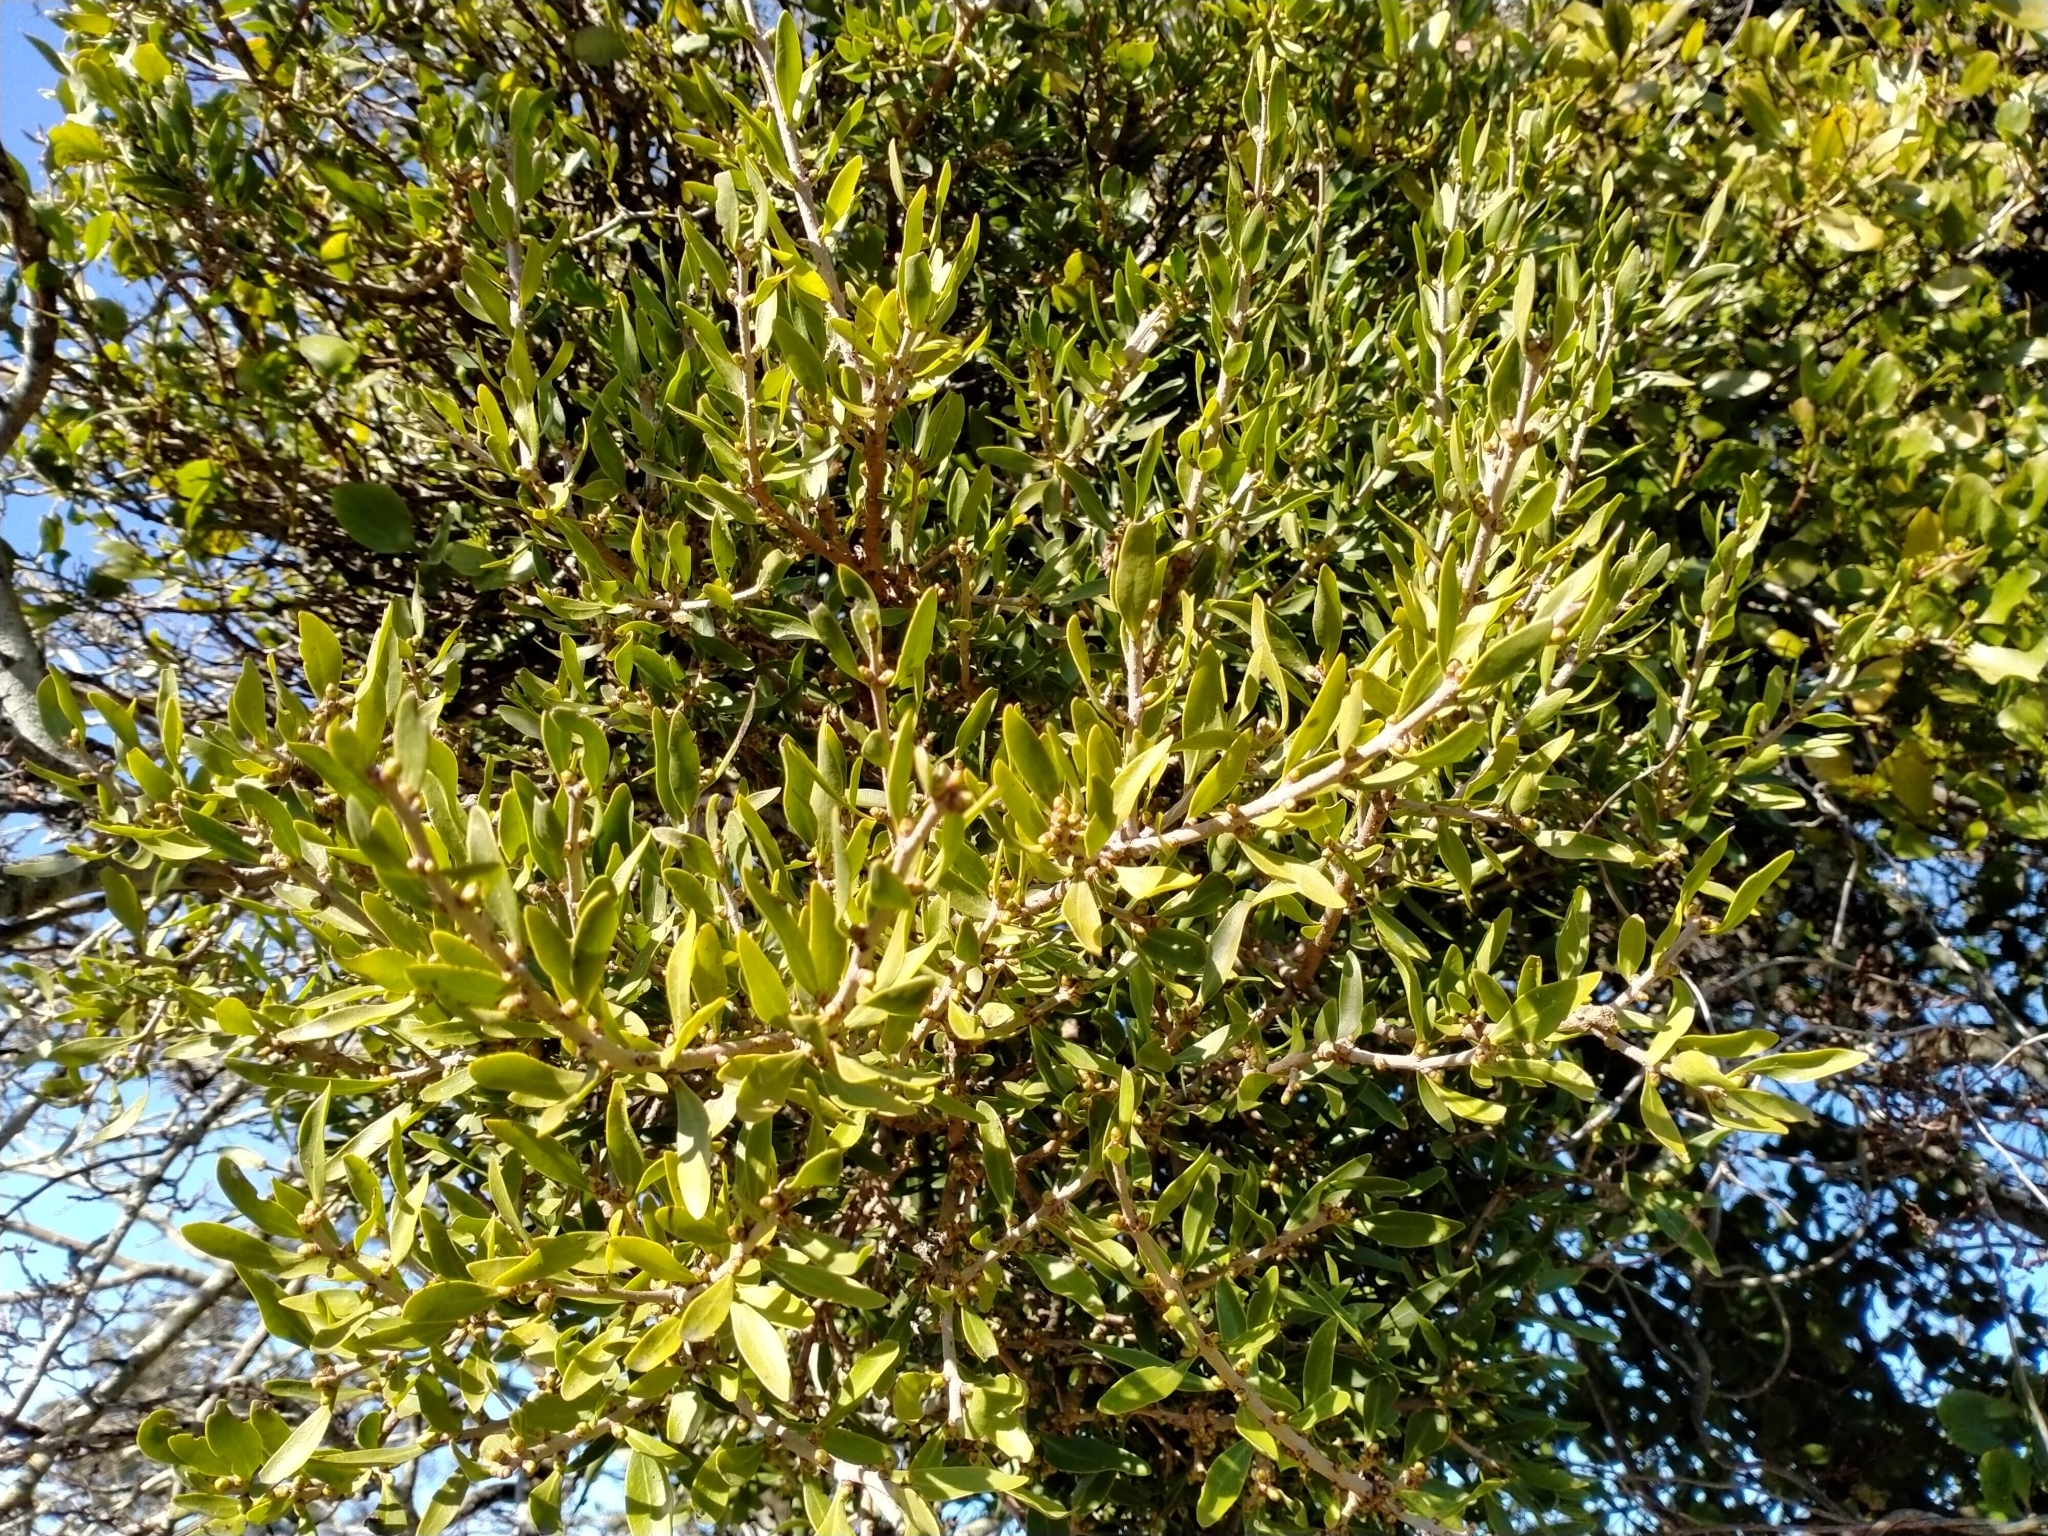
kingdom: Plantae
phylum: Tracheophyta
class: Magnoliopsida
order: Santalales
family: Loranthaceae
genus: Tupeia
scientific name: Tupeia antarctica
